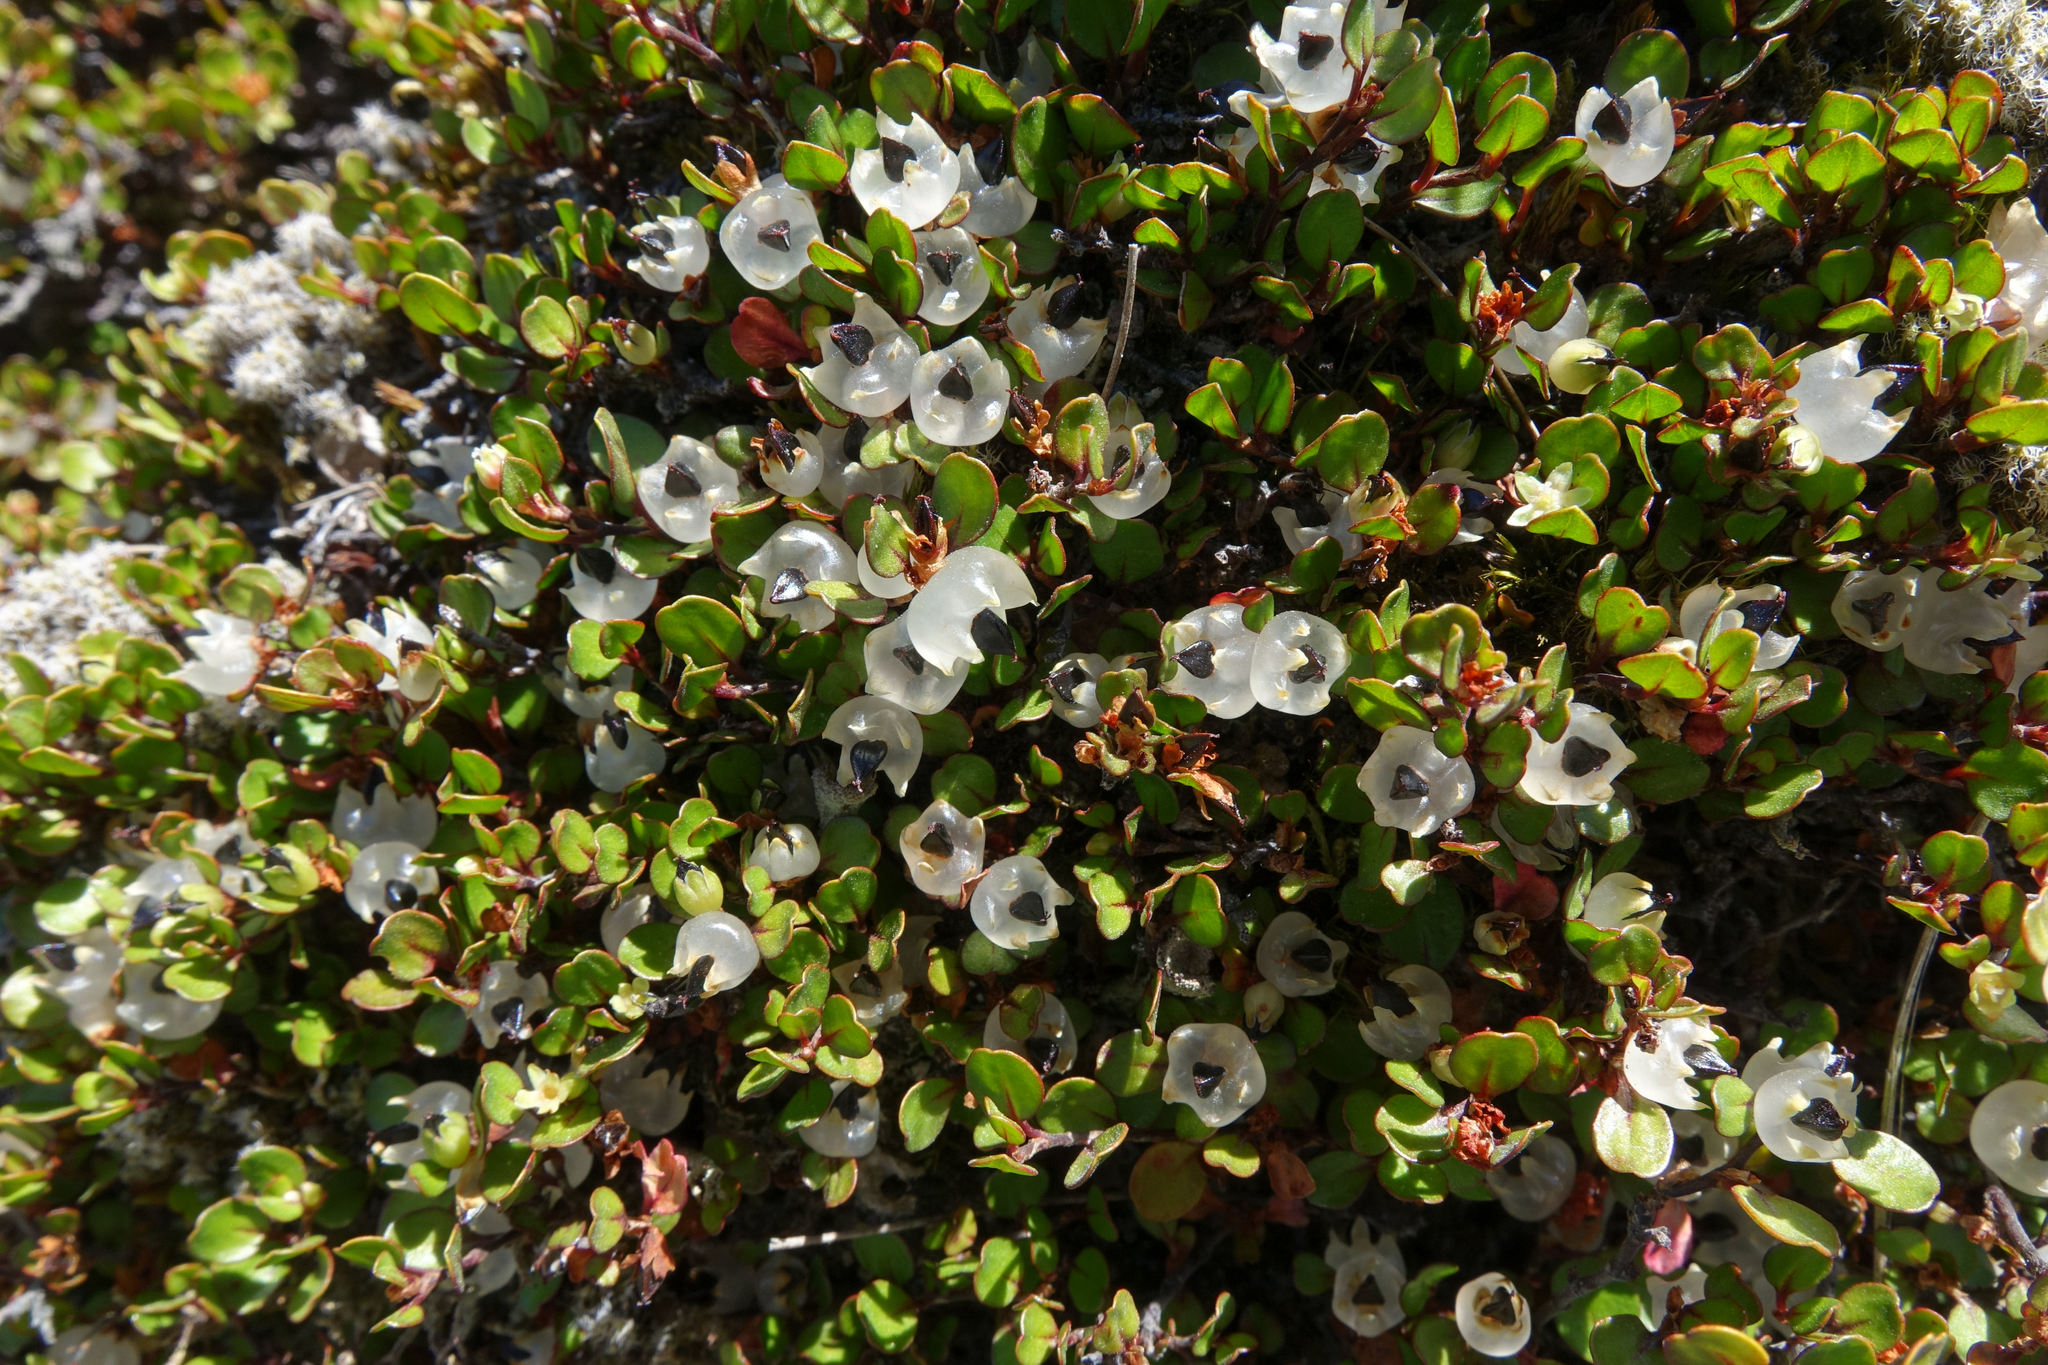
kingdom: Plantae
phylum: Tracheophyta
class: Magnoliopsida
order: Caryophyllales
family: Polygonaceae
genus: Muehlenbeckia
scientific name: Muehlenbeckia axillaris
